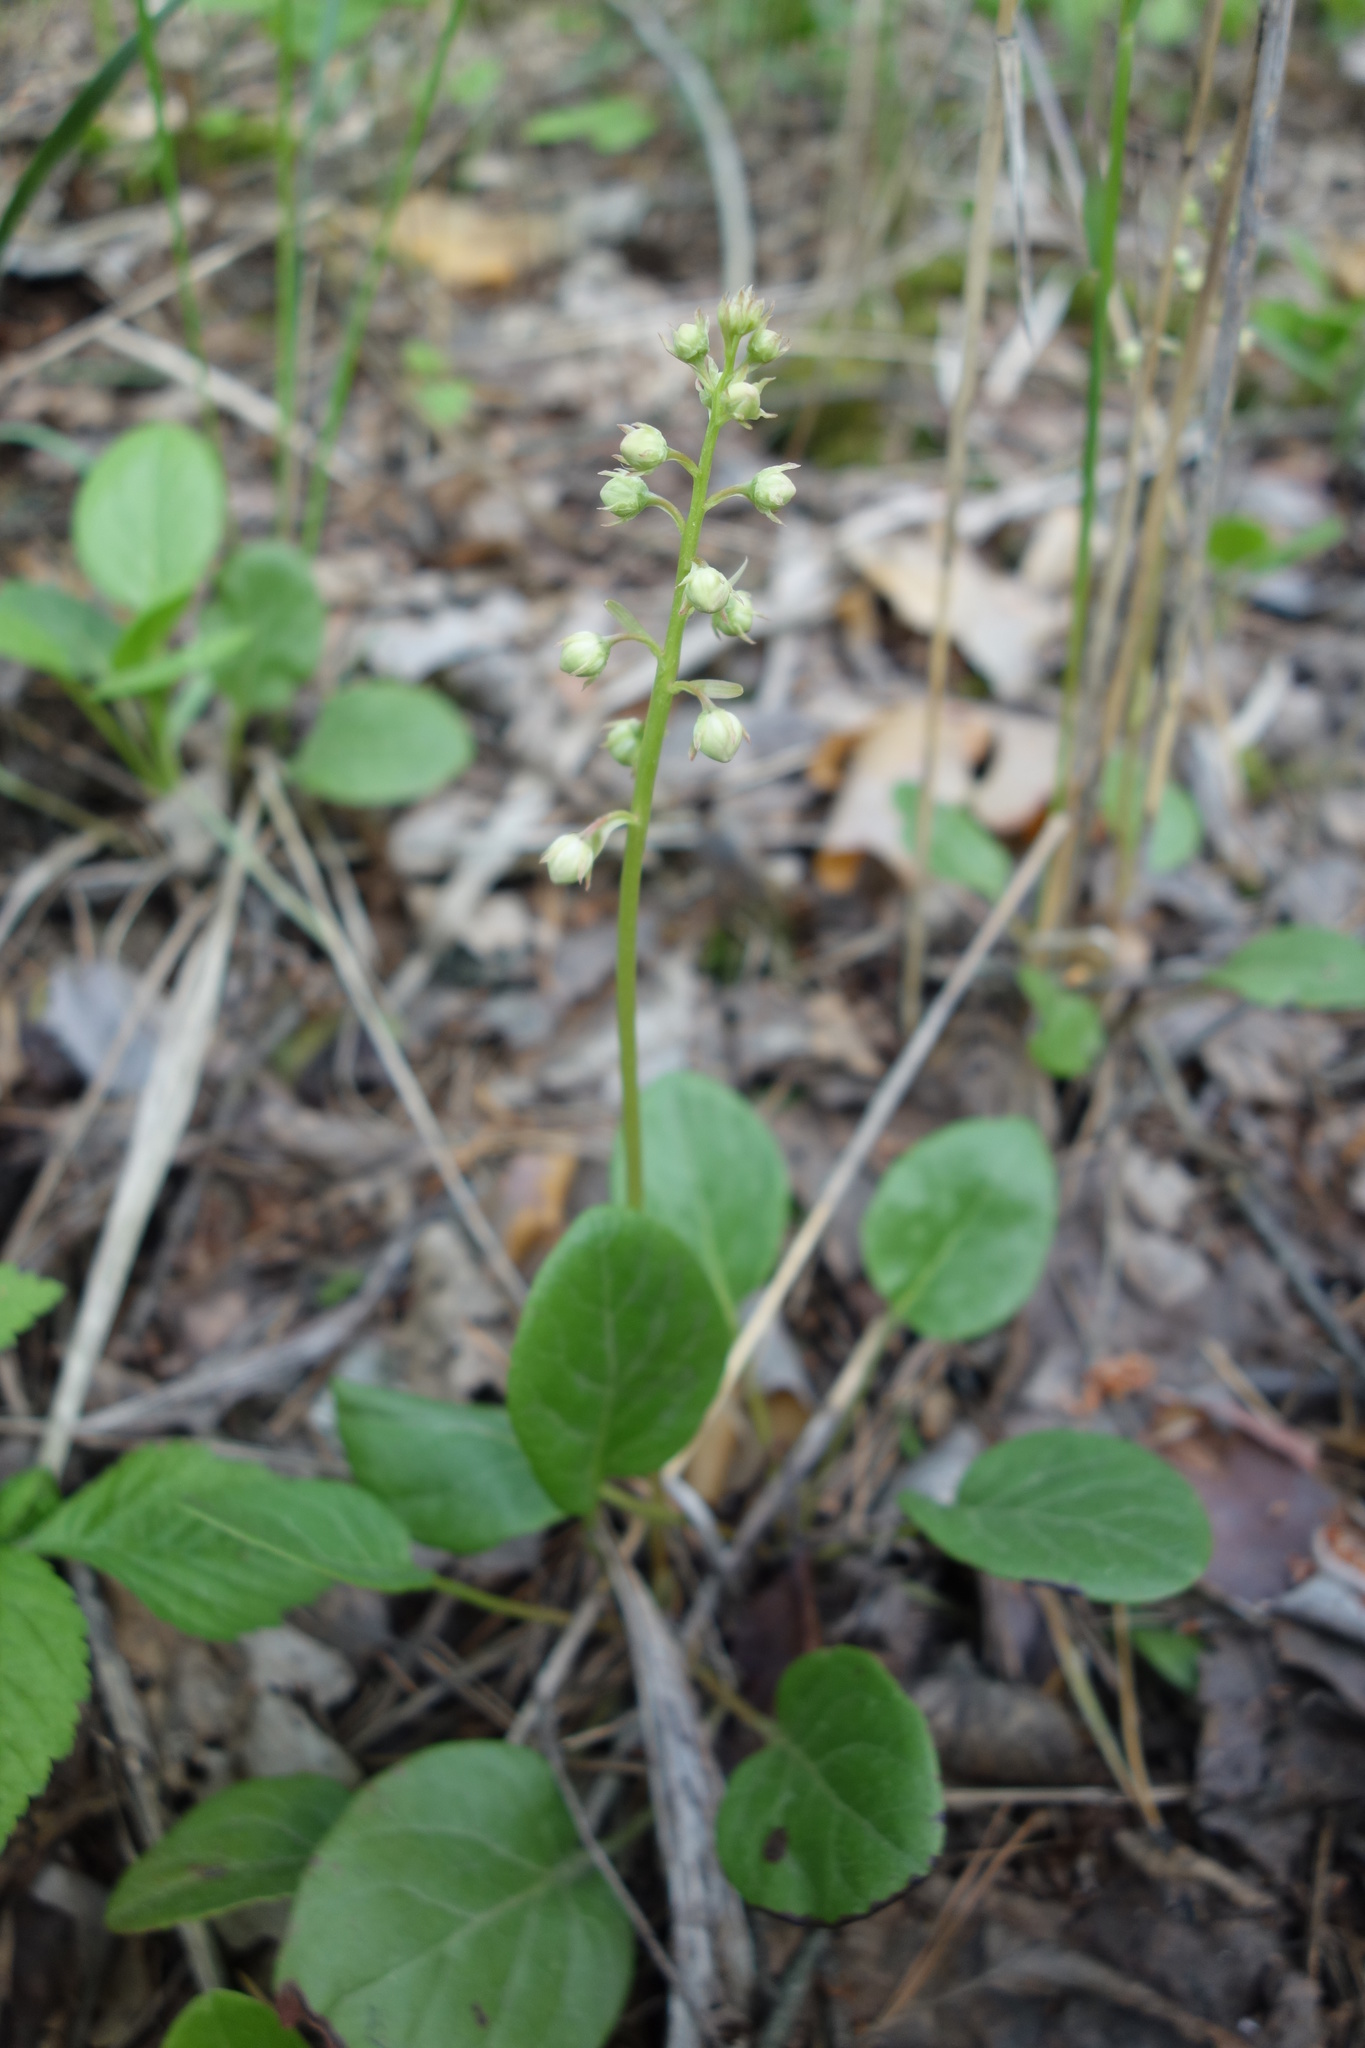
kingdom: Plantae
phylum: Tracheophyta
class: Magnoliopsida
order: Ericales
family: Ericaceae
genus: Pyrola
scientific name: Pyrola rotundifolia
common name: Round-leaved wintergreen
